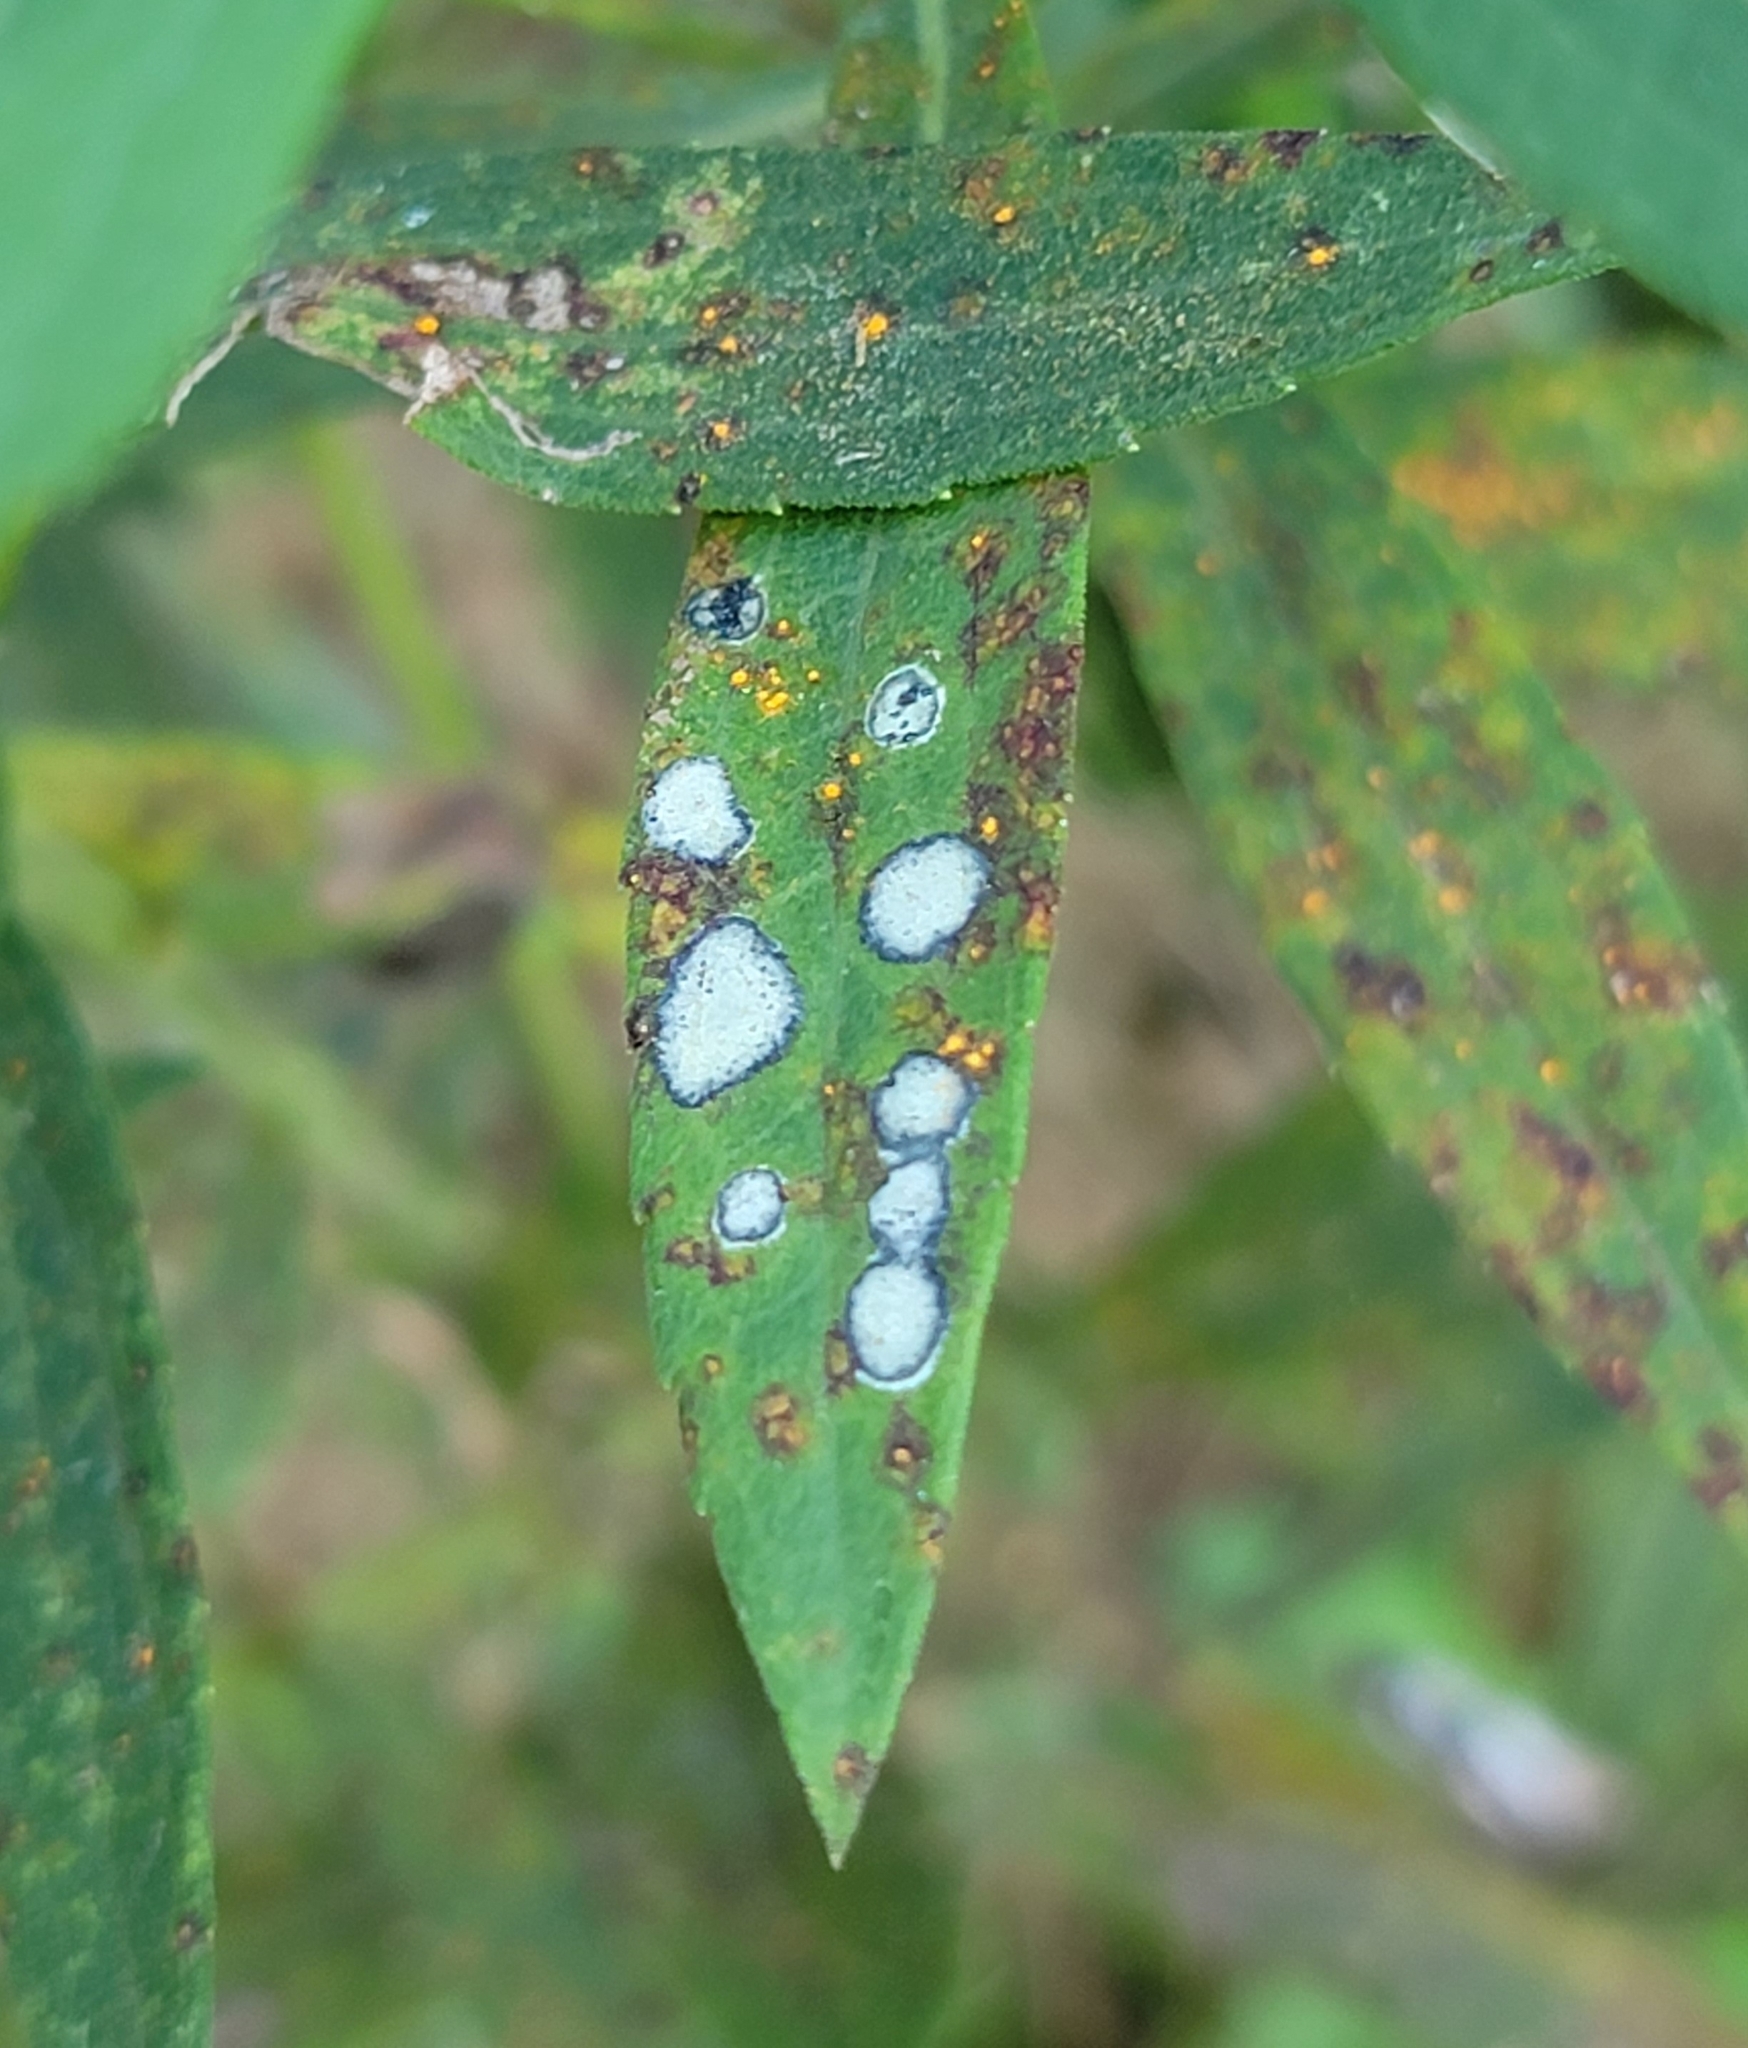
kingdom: Animalia
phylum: Arthropoda
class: Insecta
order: Diptera
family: Cecidomyiidae
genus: Asteromyia
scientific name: Asteromyia carbonifera
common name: Carbonifera goldenrod gall midge
